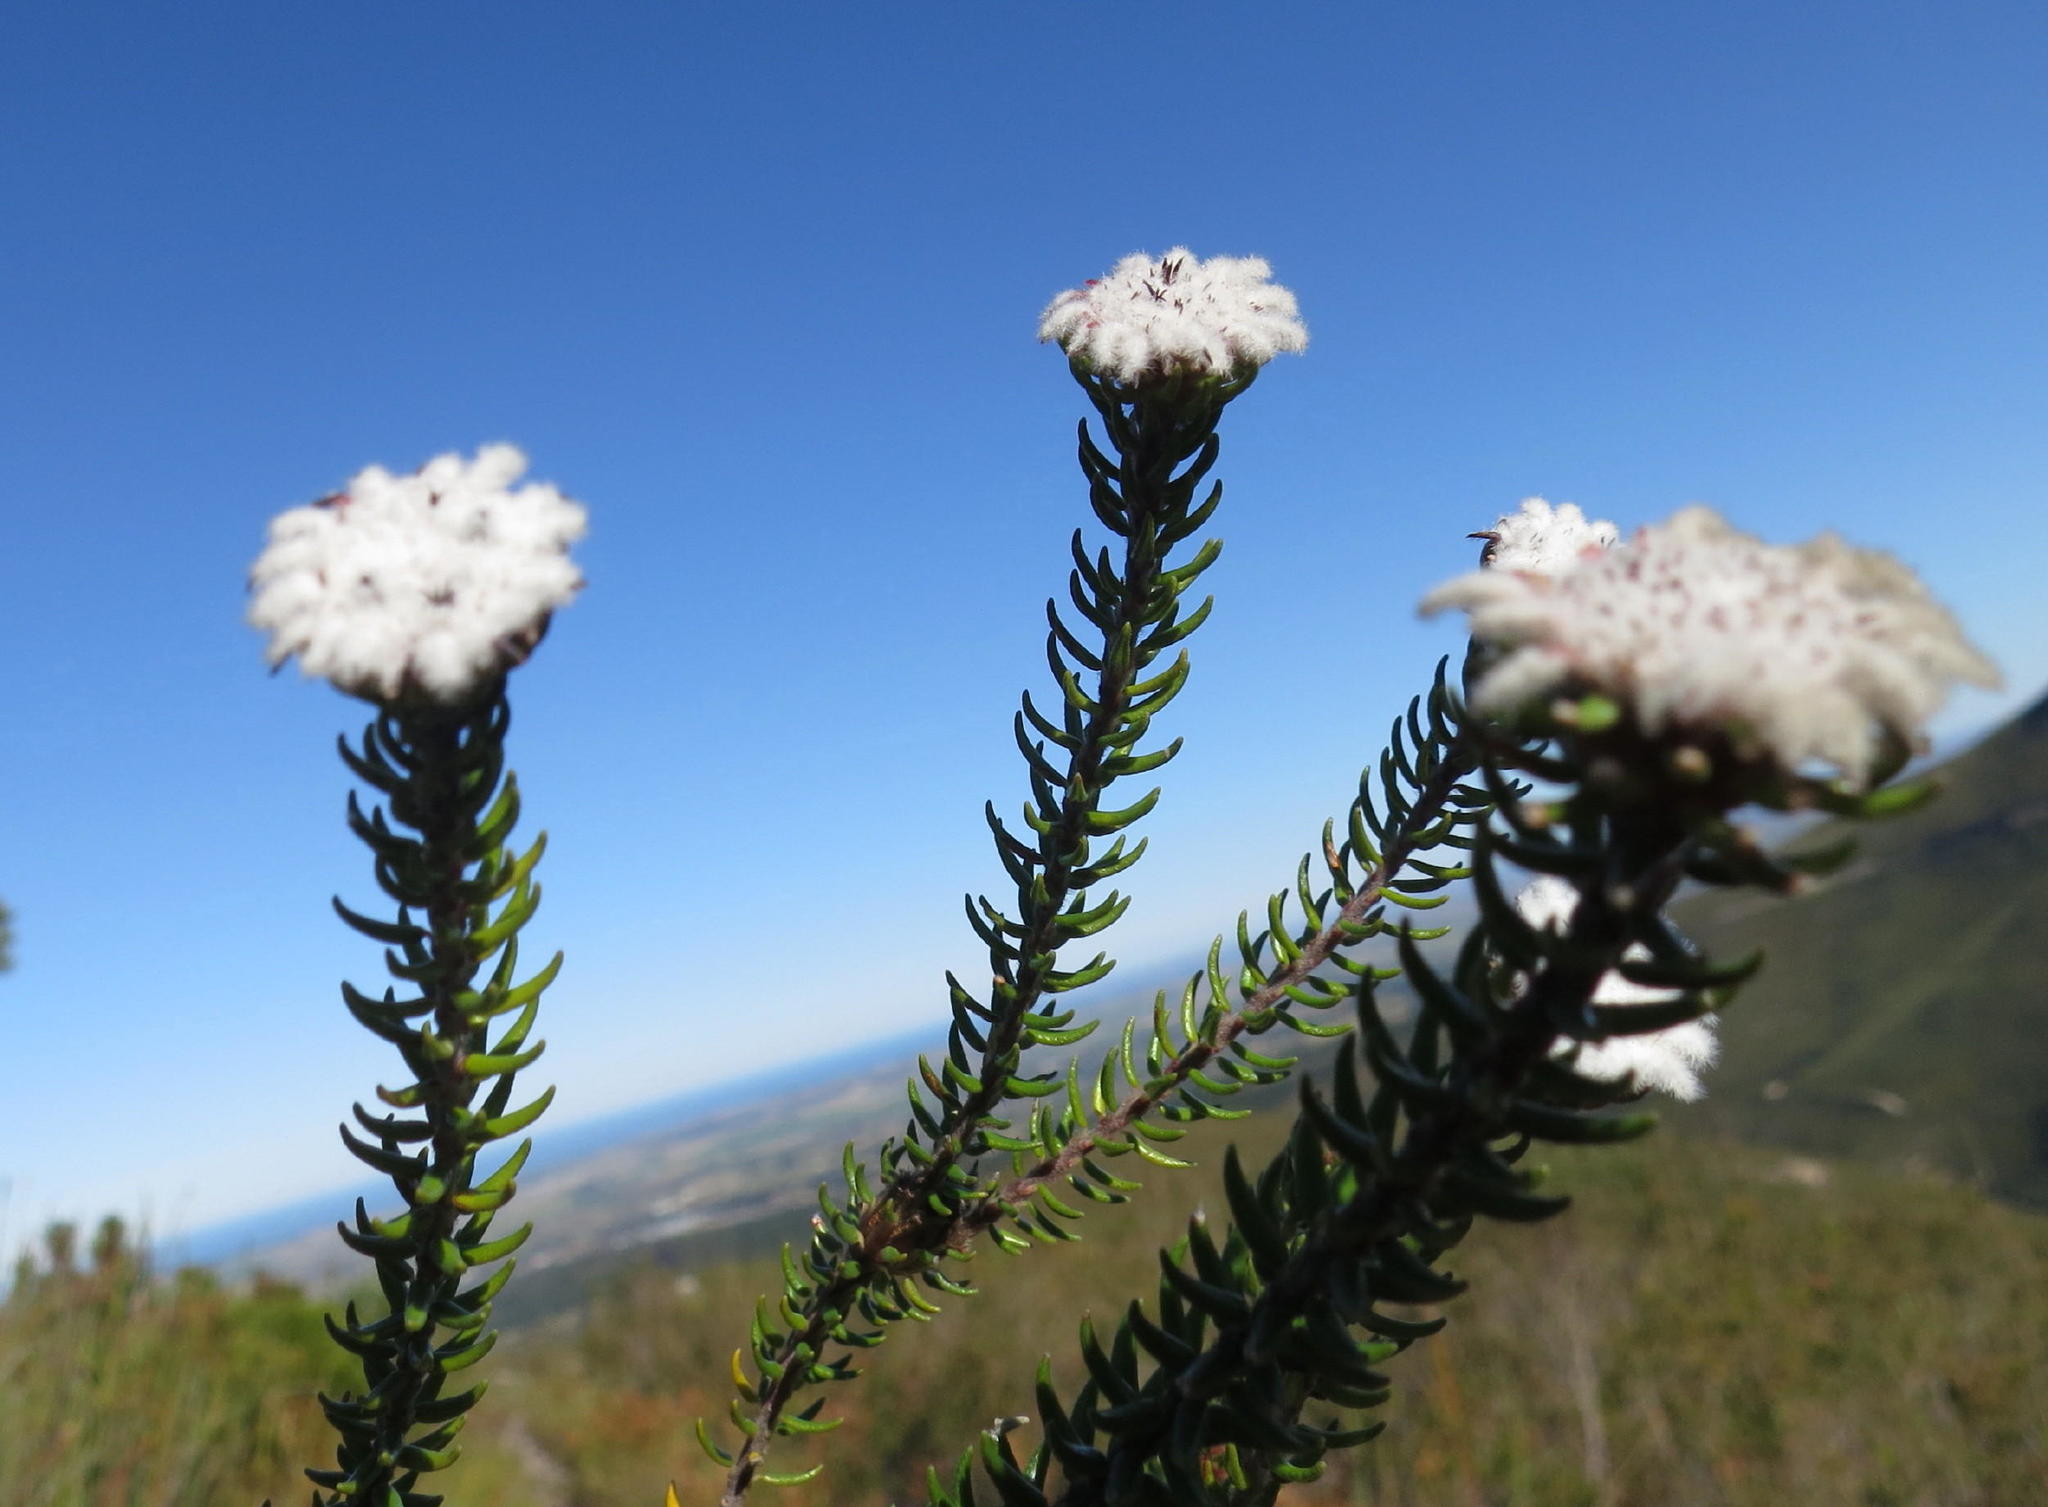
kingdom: Plantae
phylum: Tracheophyta
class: Magnoliopsida
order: Rosales
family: Rhamnaceae
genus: Phylica
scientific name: Phylica curvifolia
